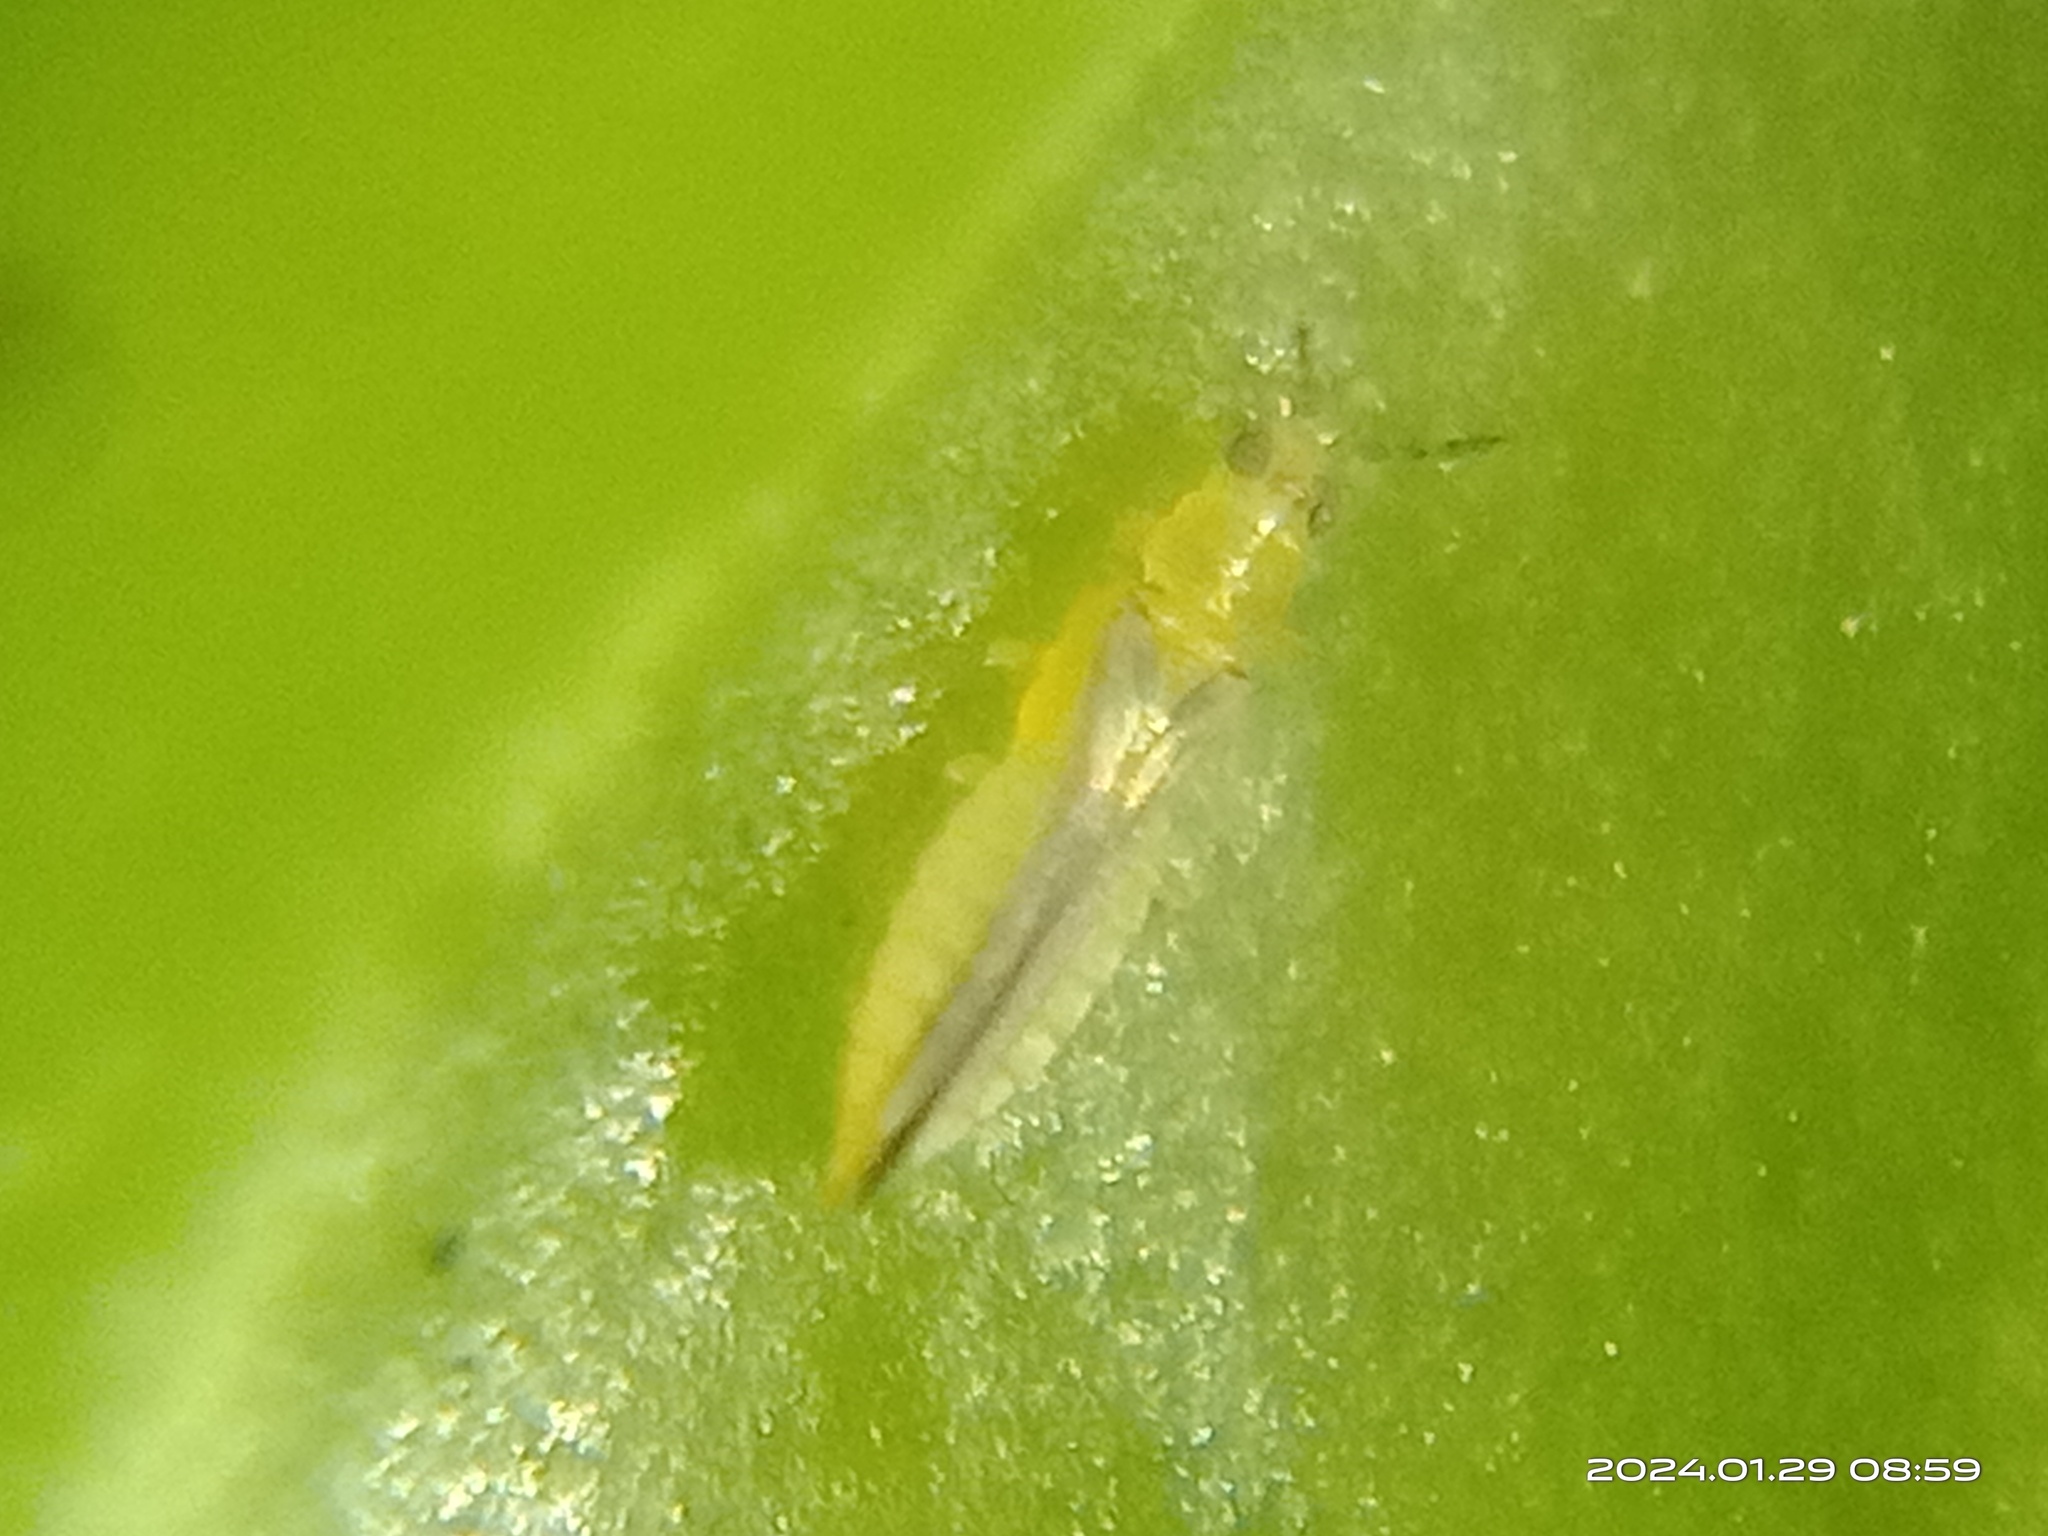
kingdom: Animalia
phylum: Arthropoda
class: Insecta
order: Thysanoptera
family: Thripidae
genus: Scirtothrips
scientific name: Scirtothrips dorsalis
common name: Thrips
